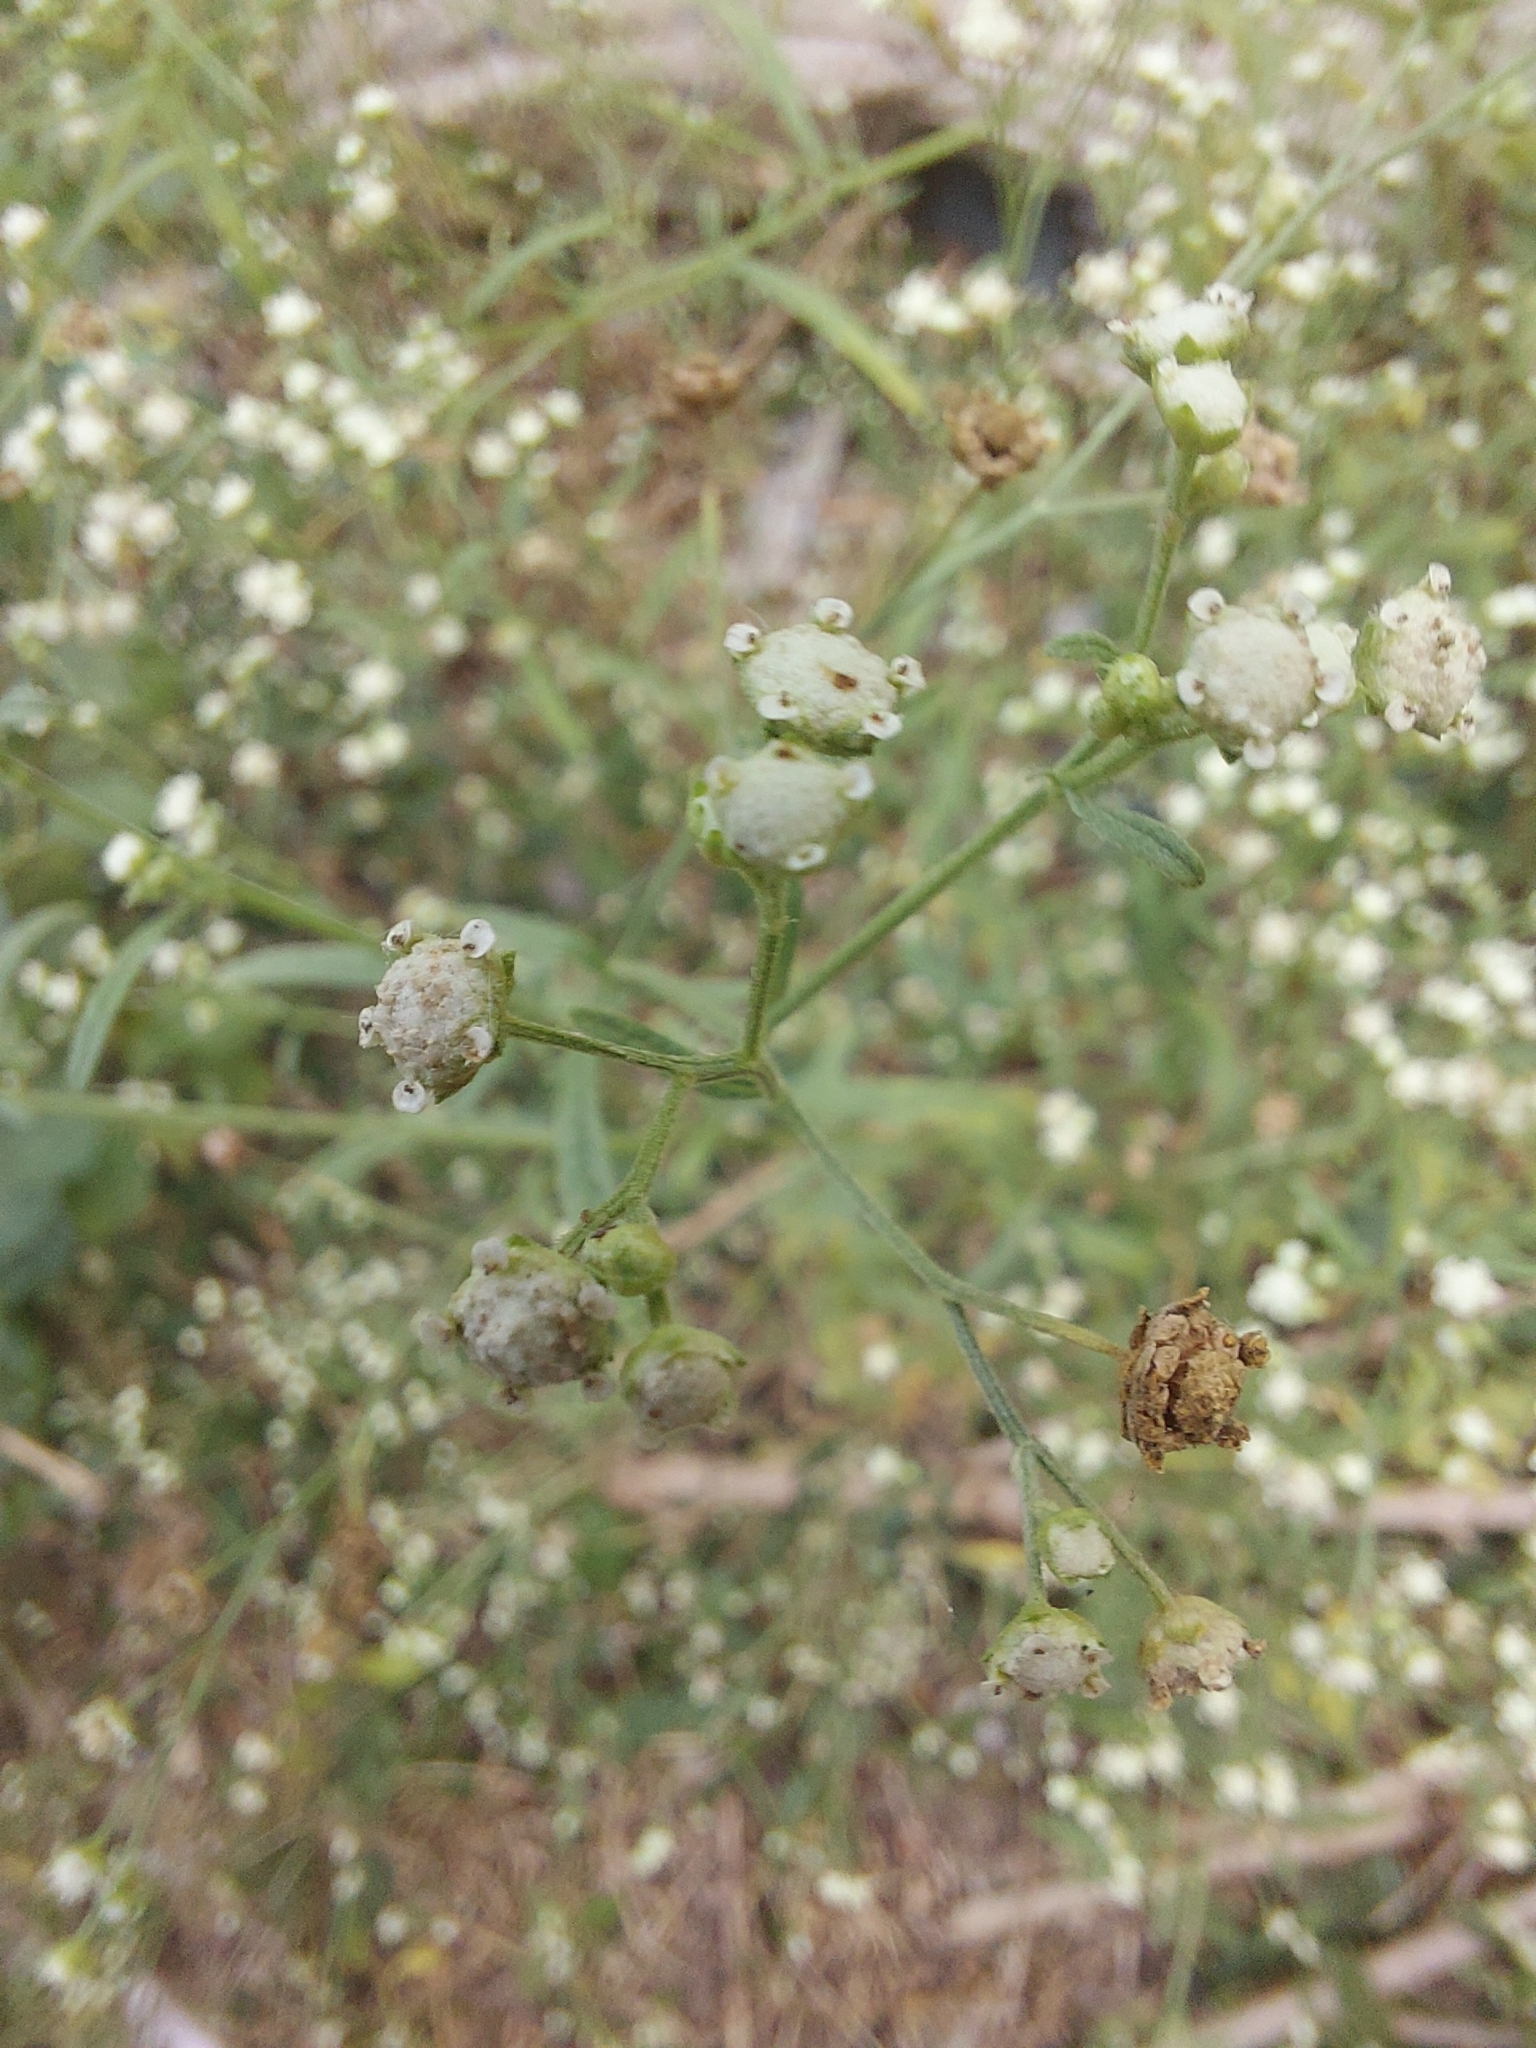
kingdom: Plantae
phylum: Tracheophyta
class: Magnoliopsida
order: Asterales
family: Asteraceae
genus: Parthenium
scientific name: Parthenium hysterophorus
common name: Santa maria feverfew
